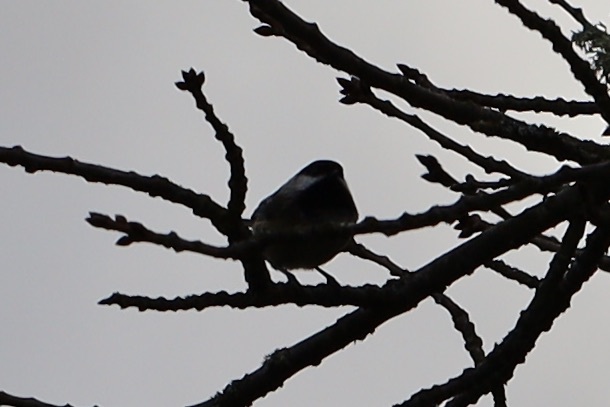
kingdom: Animalia
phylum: Chordata
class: Aves
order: Passeriformes
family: Paridae
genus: Poecile
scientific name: Poecile atricapillus
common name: Black-capped chickadee
